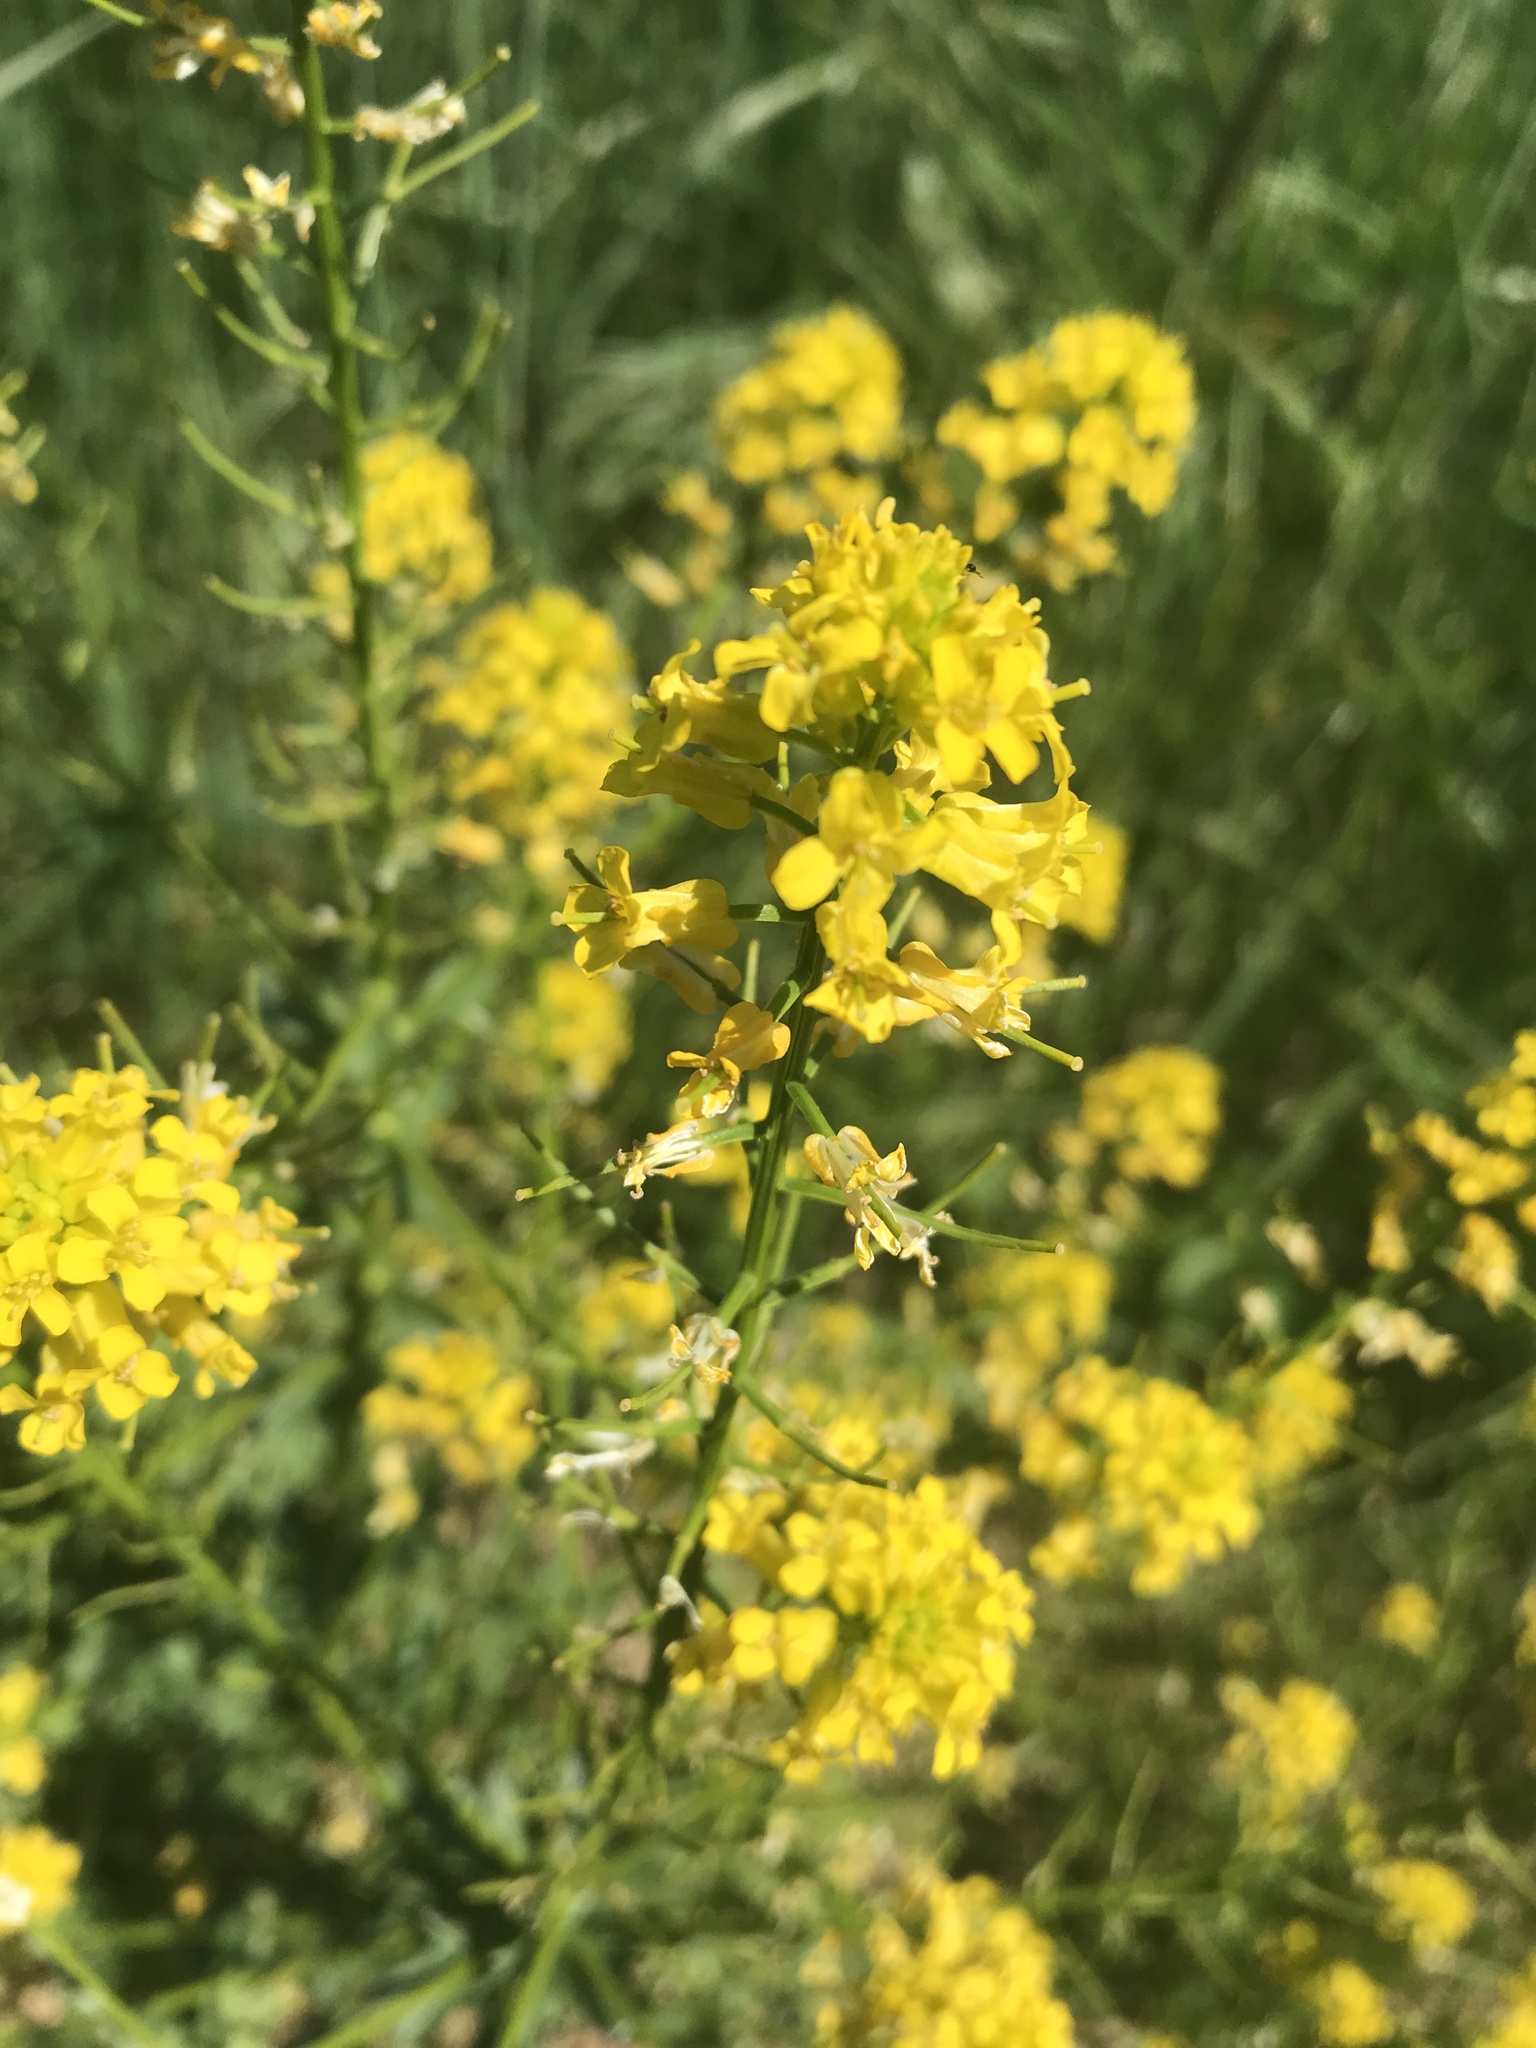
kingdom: Plantae
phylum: Tracheophyta
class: Magnoliopsida
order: Brassicales
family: Brassicaceae
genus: Barbarea
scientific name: Barbarea vulgaris
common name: Cressy-greens
